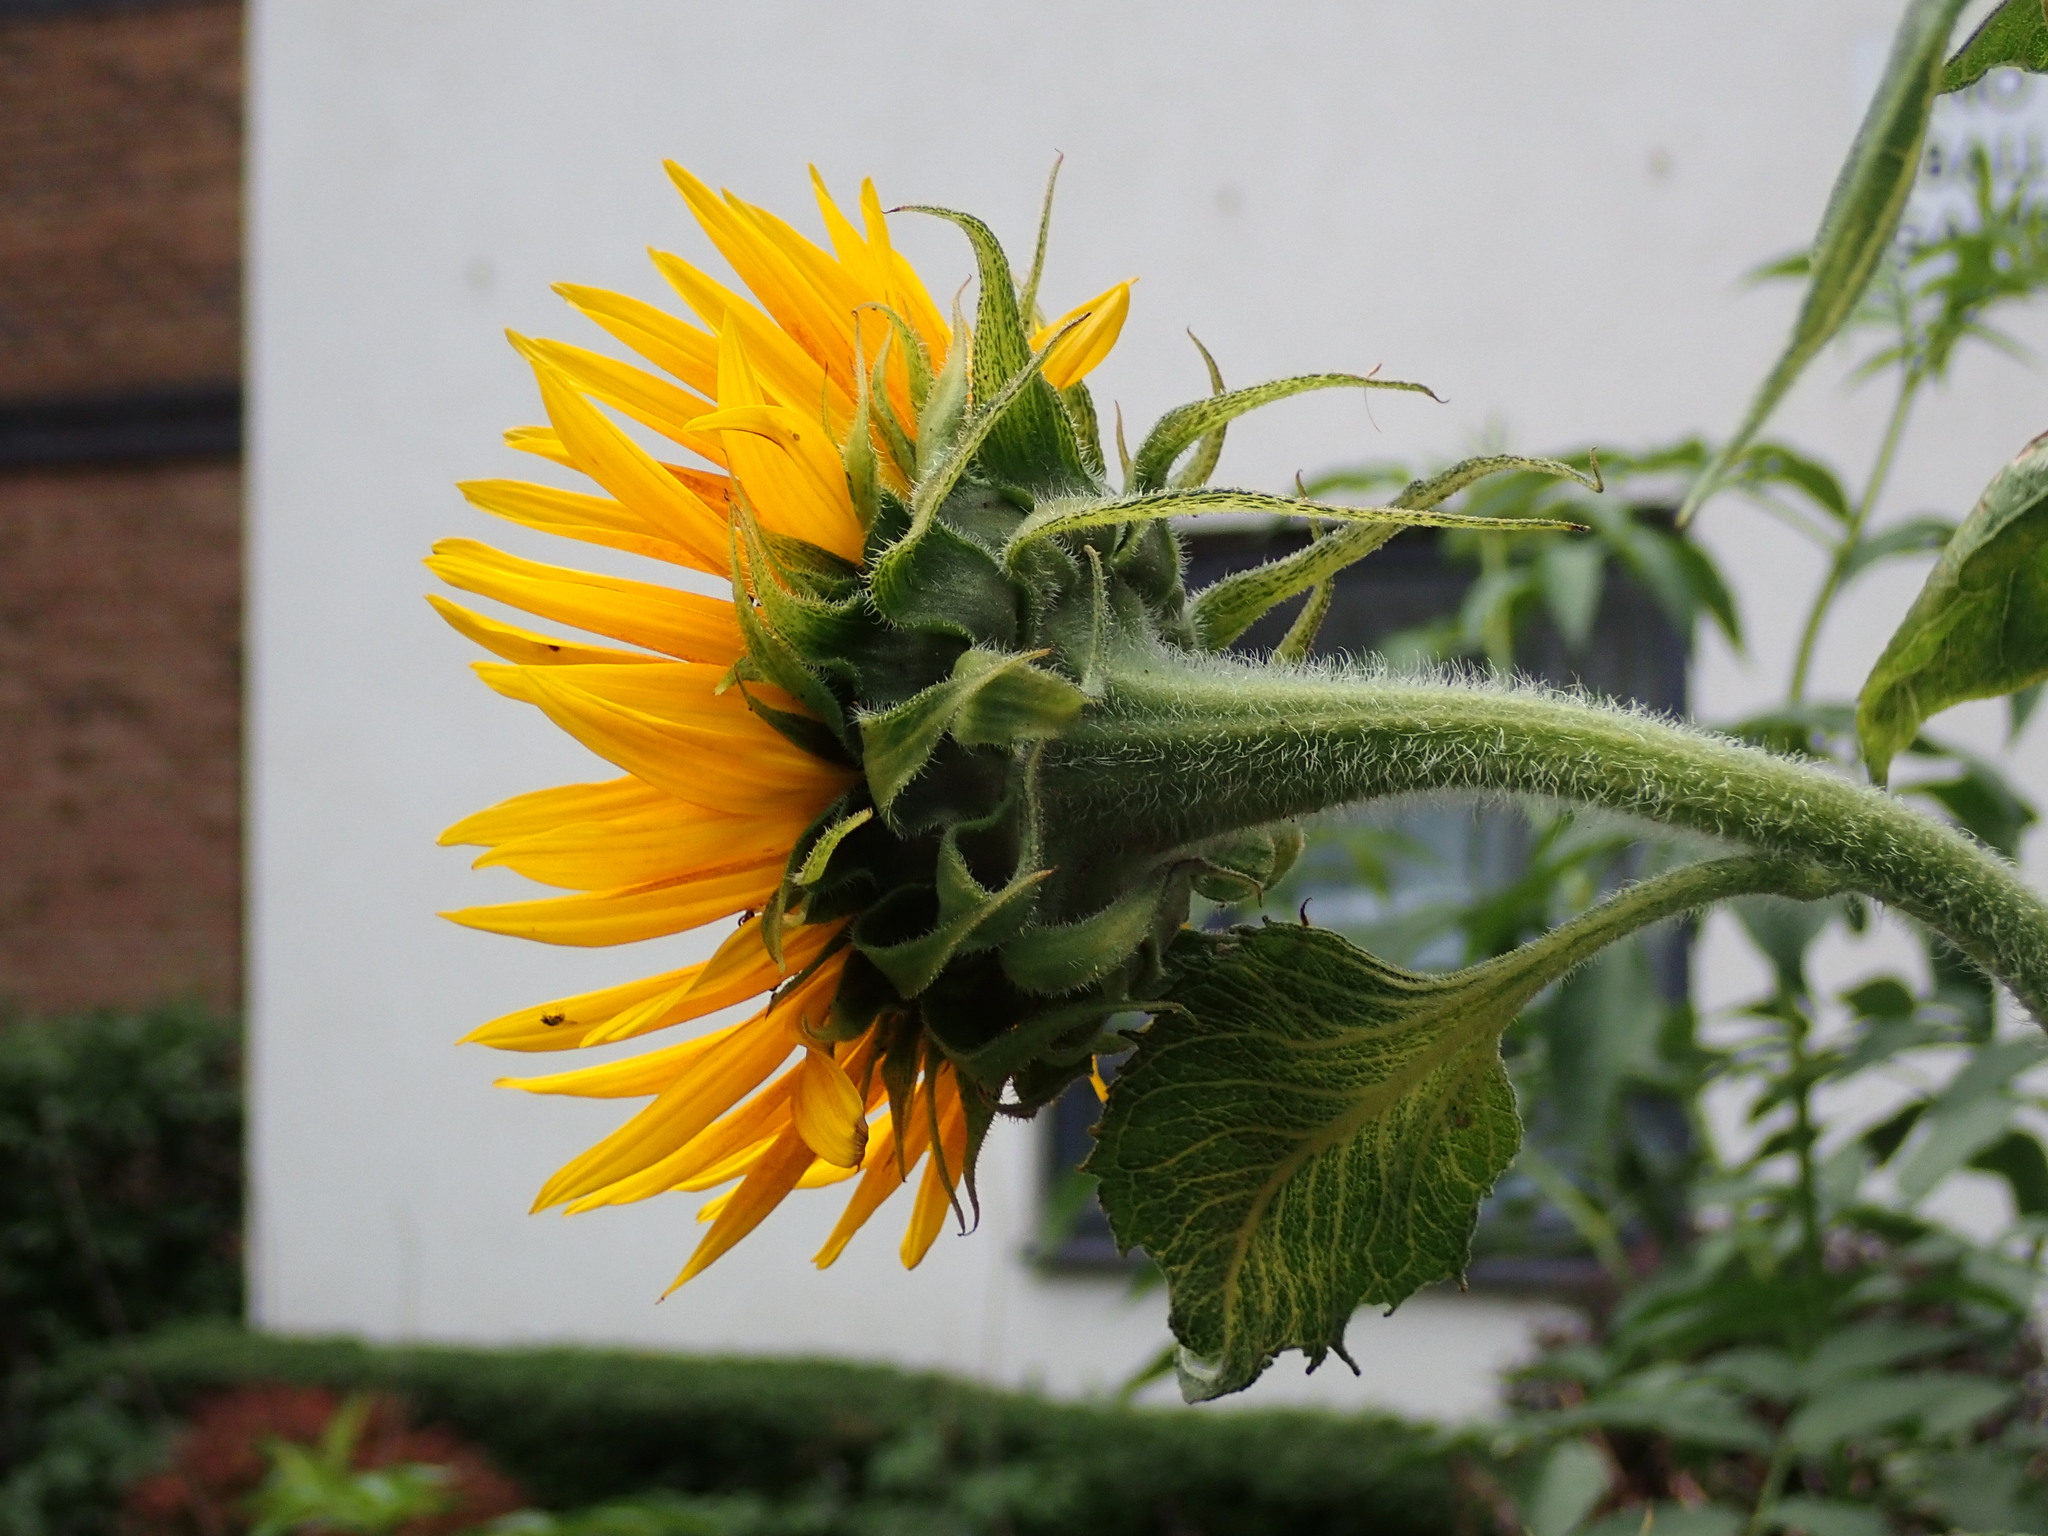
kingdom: Plantae
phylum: Tracheophyta
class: Magnoliopsida
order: Asterales
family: Asteraceae
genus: Helianthus
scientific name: Helianthus annuus
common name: Sunflower
